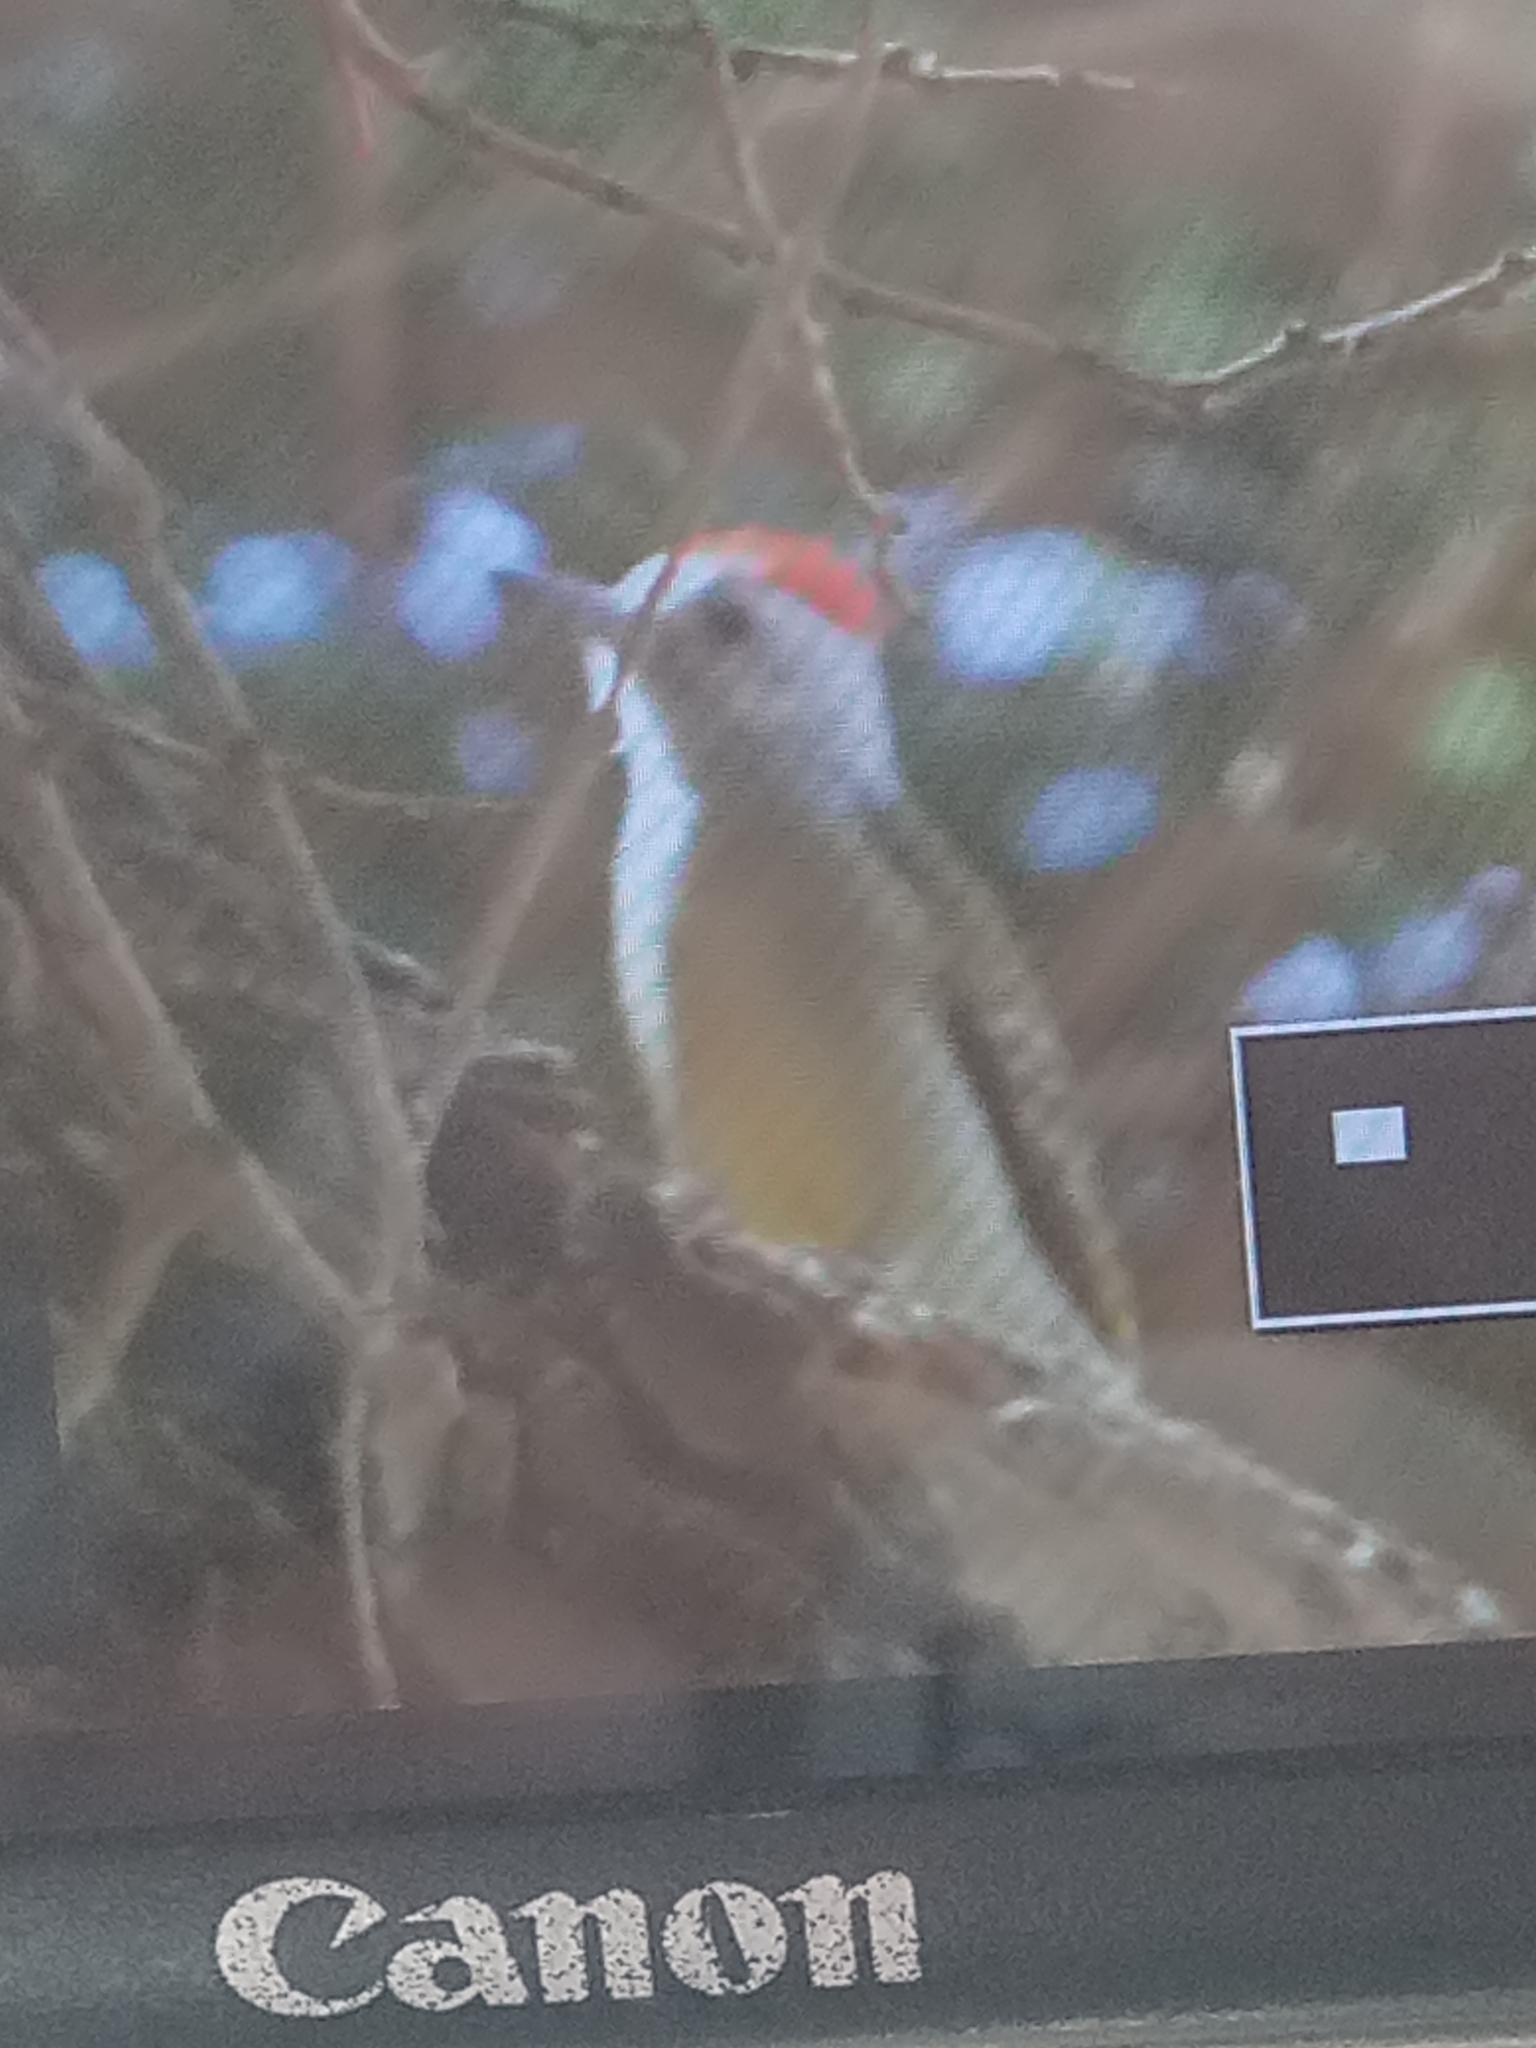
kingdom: Animalia
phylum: Chordata
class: Aves
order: Piciformes
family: Picidae
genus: Dendropicos
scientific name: Dendropicos goertae
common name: African grey woodpecker
